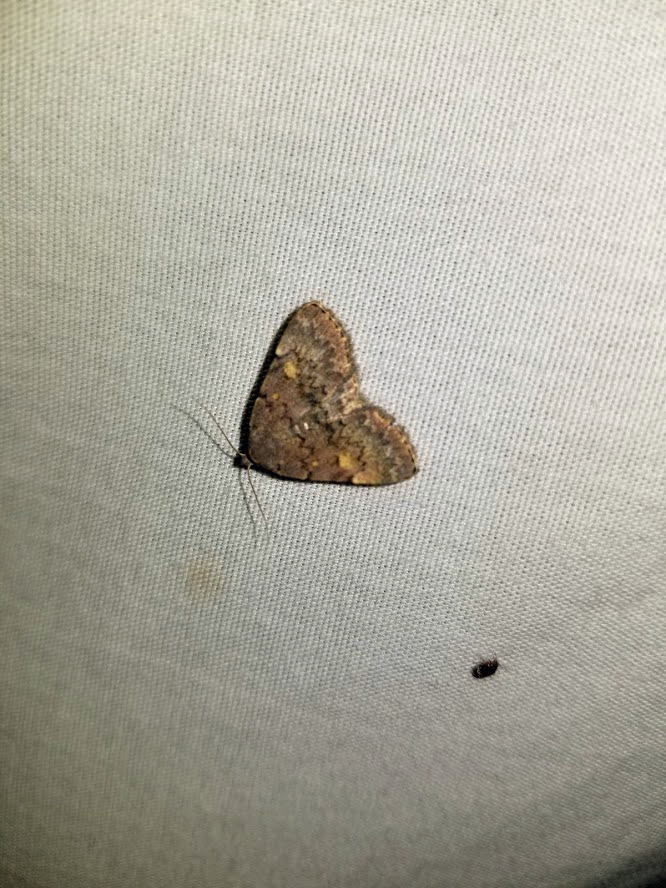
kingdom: Animalia
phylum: Arthropoda
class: Insecta
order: Lepidoptera
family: Erebidae
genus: Idia
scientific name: Idia aemula
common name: Common idia moth
